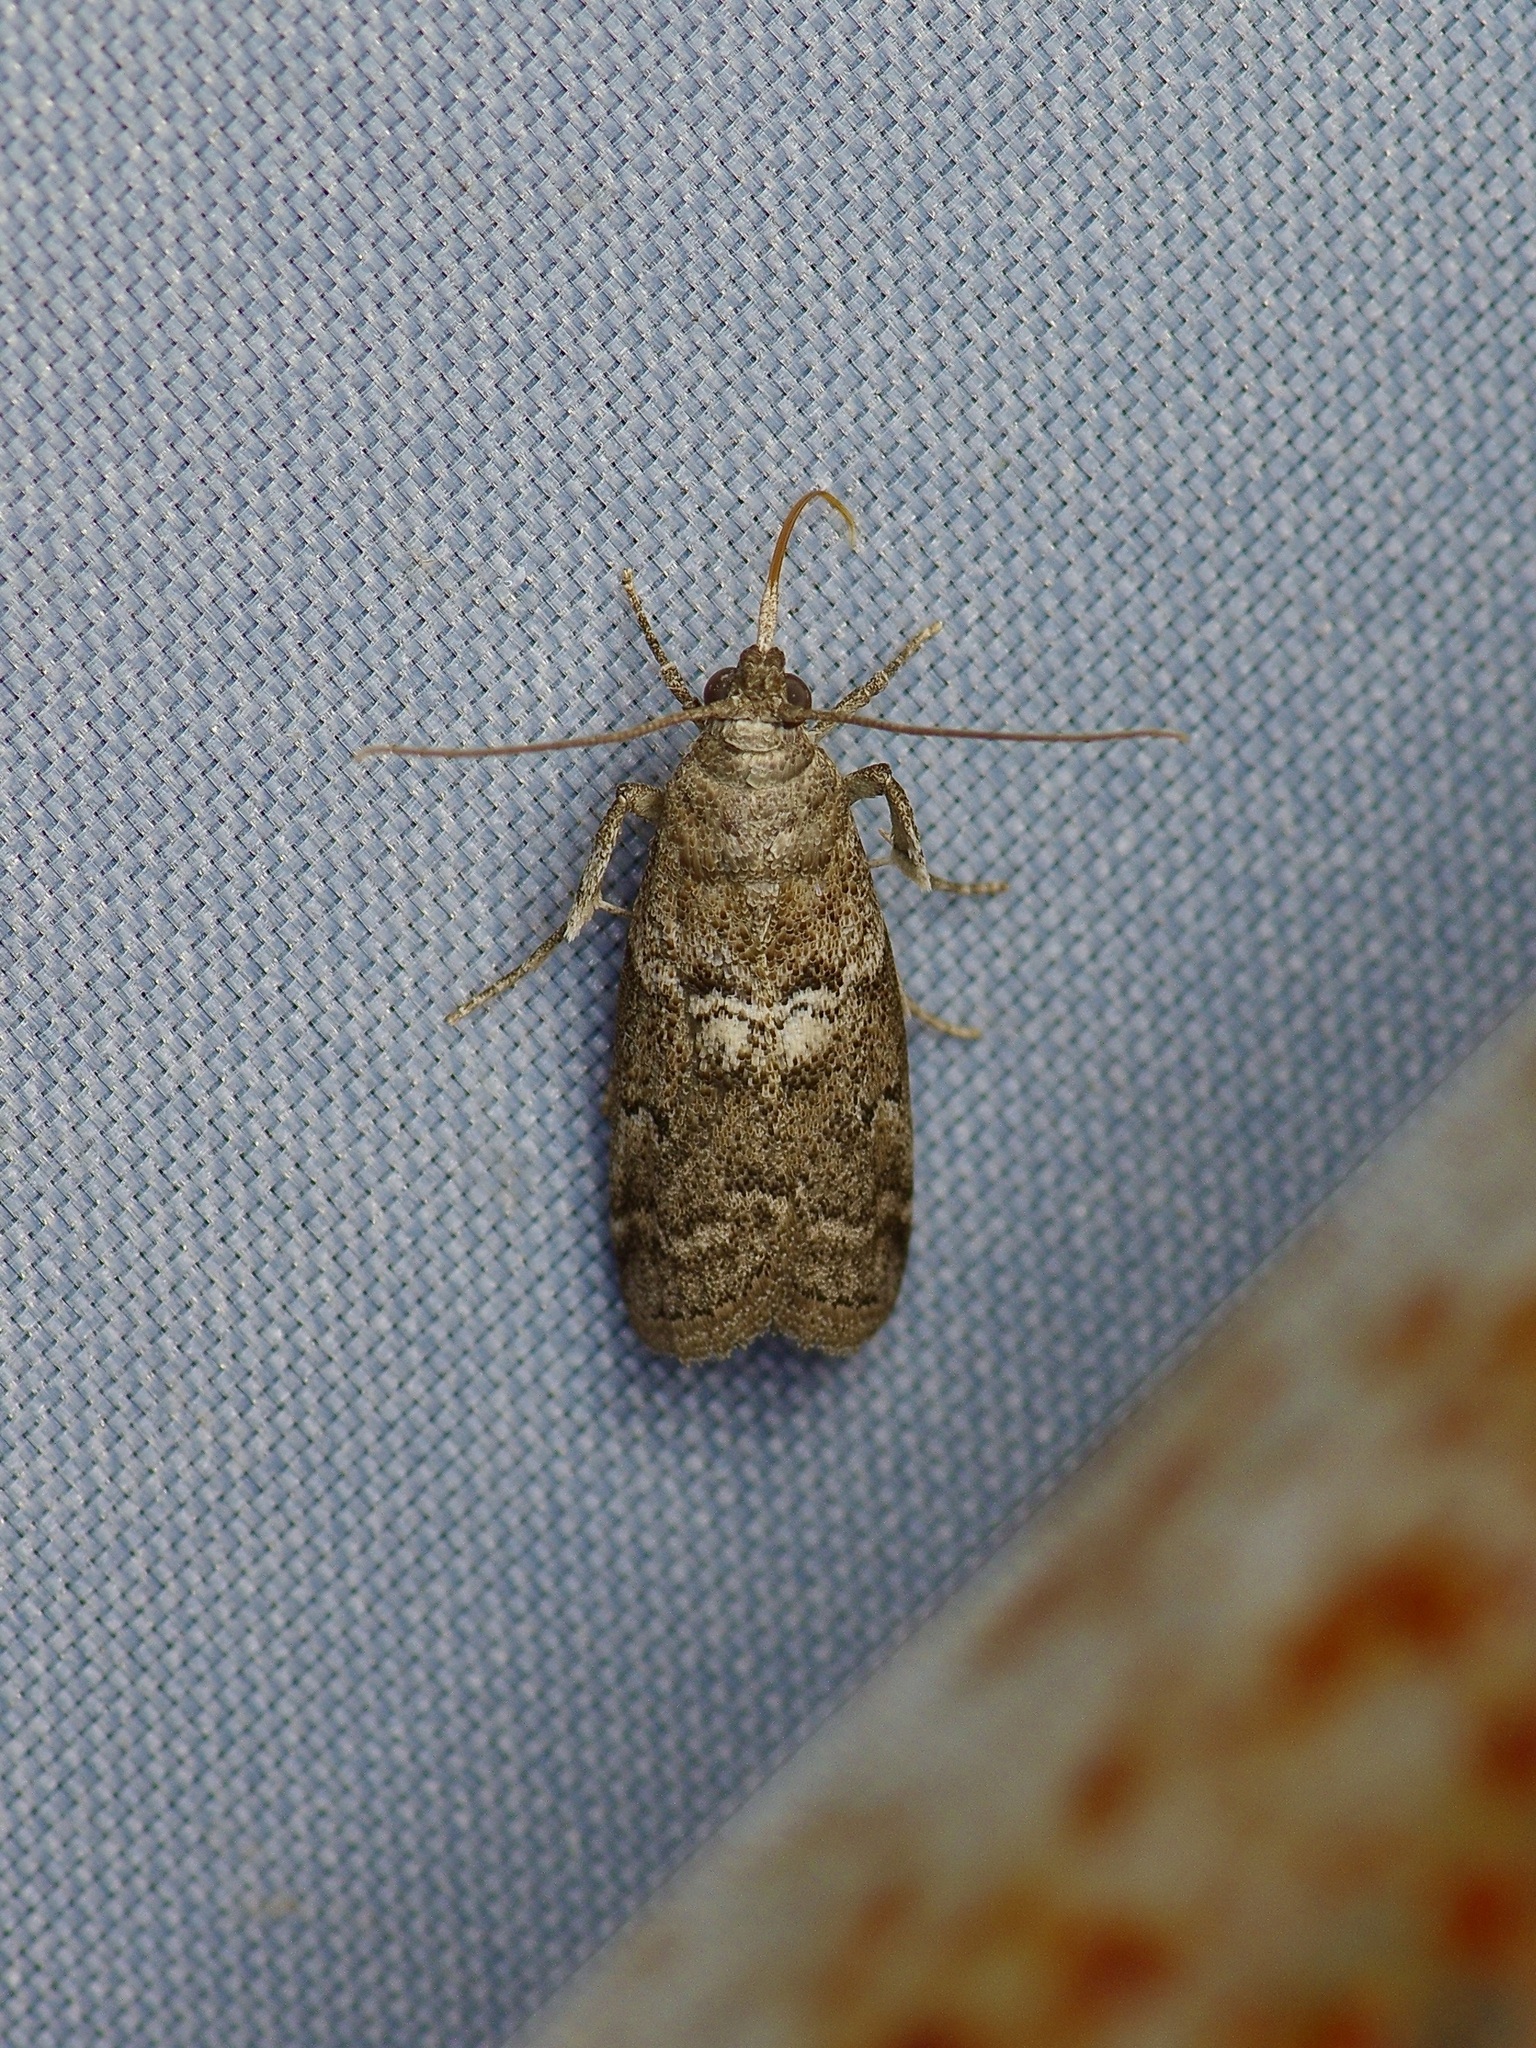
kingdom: Animalia
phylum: Arthropoda
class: Insecta
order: Lepidoptera
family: Pyralidae
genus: Ancylosis
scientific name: Ancylosis Canarsia ulmiarrosorella
